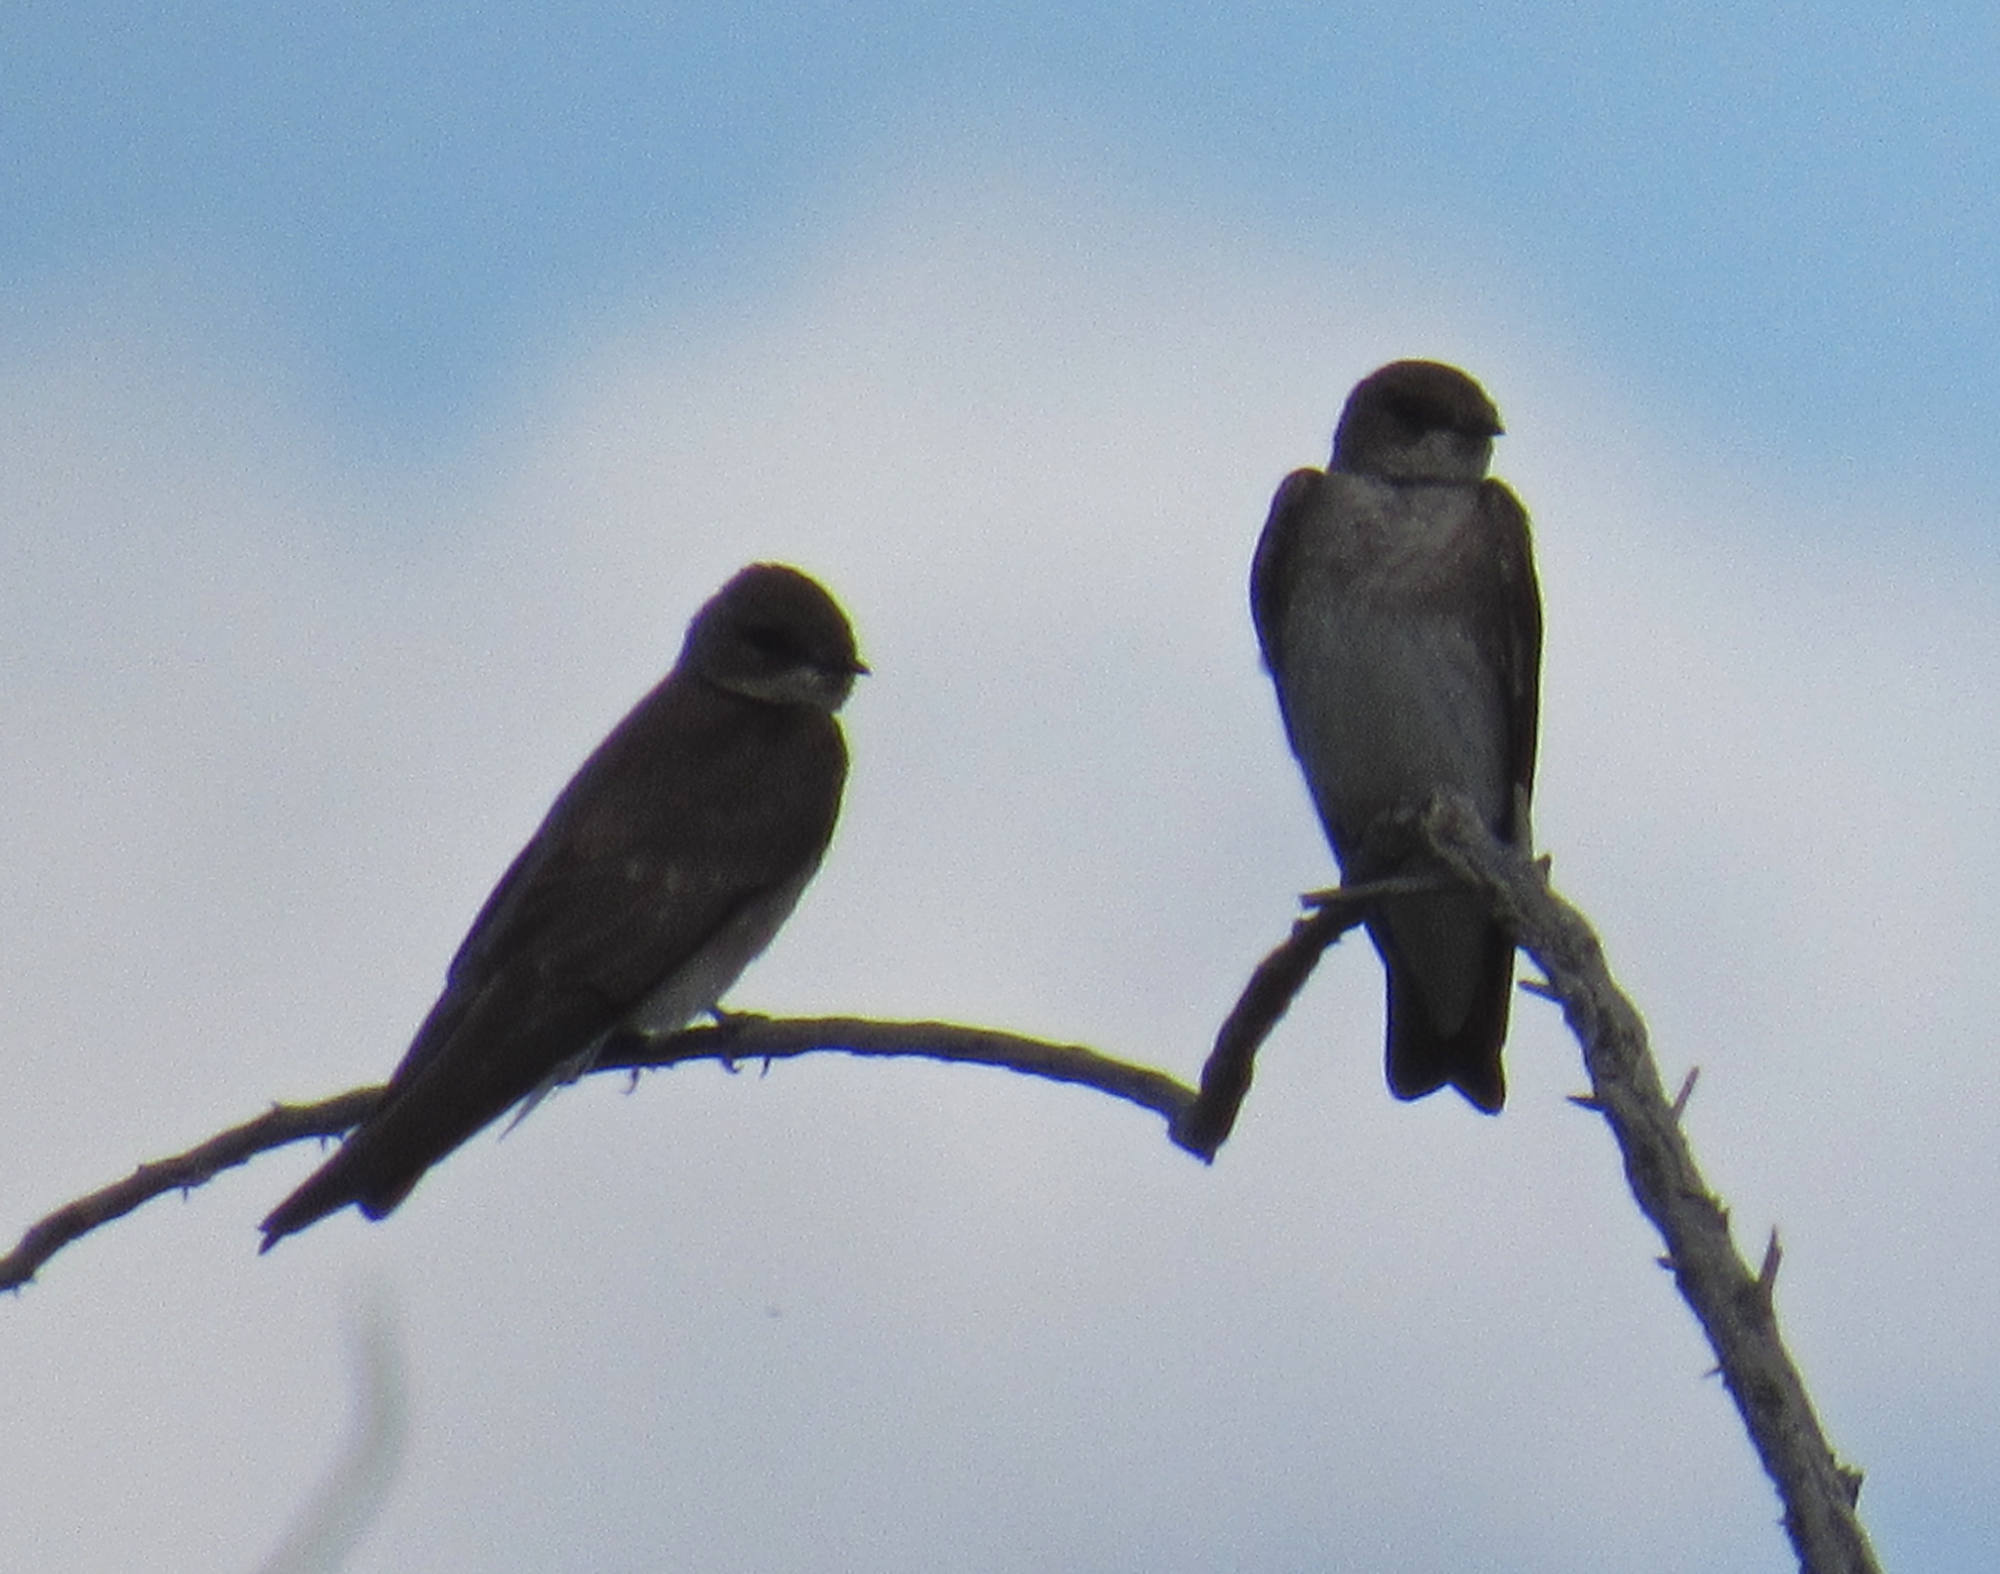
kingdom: Animalia
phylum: Chordata
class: Aves
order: Passeriformes
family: Hirundinidae
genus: Stelgidopteryx
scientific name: Stelgidopteryx serripennis
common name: Northern rough-winged swallow
